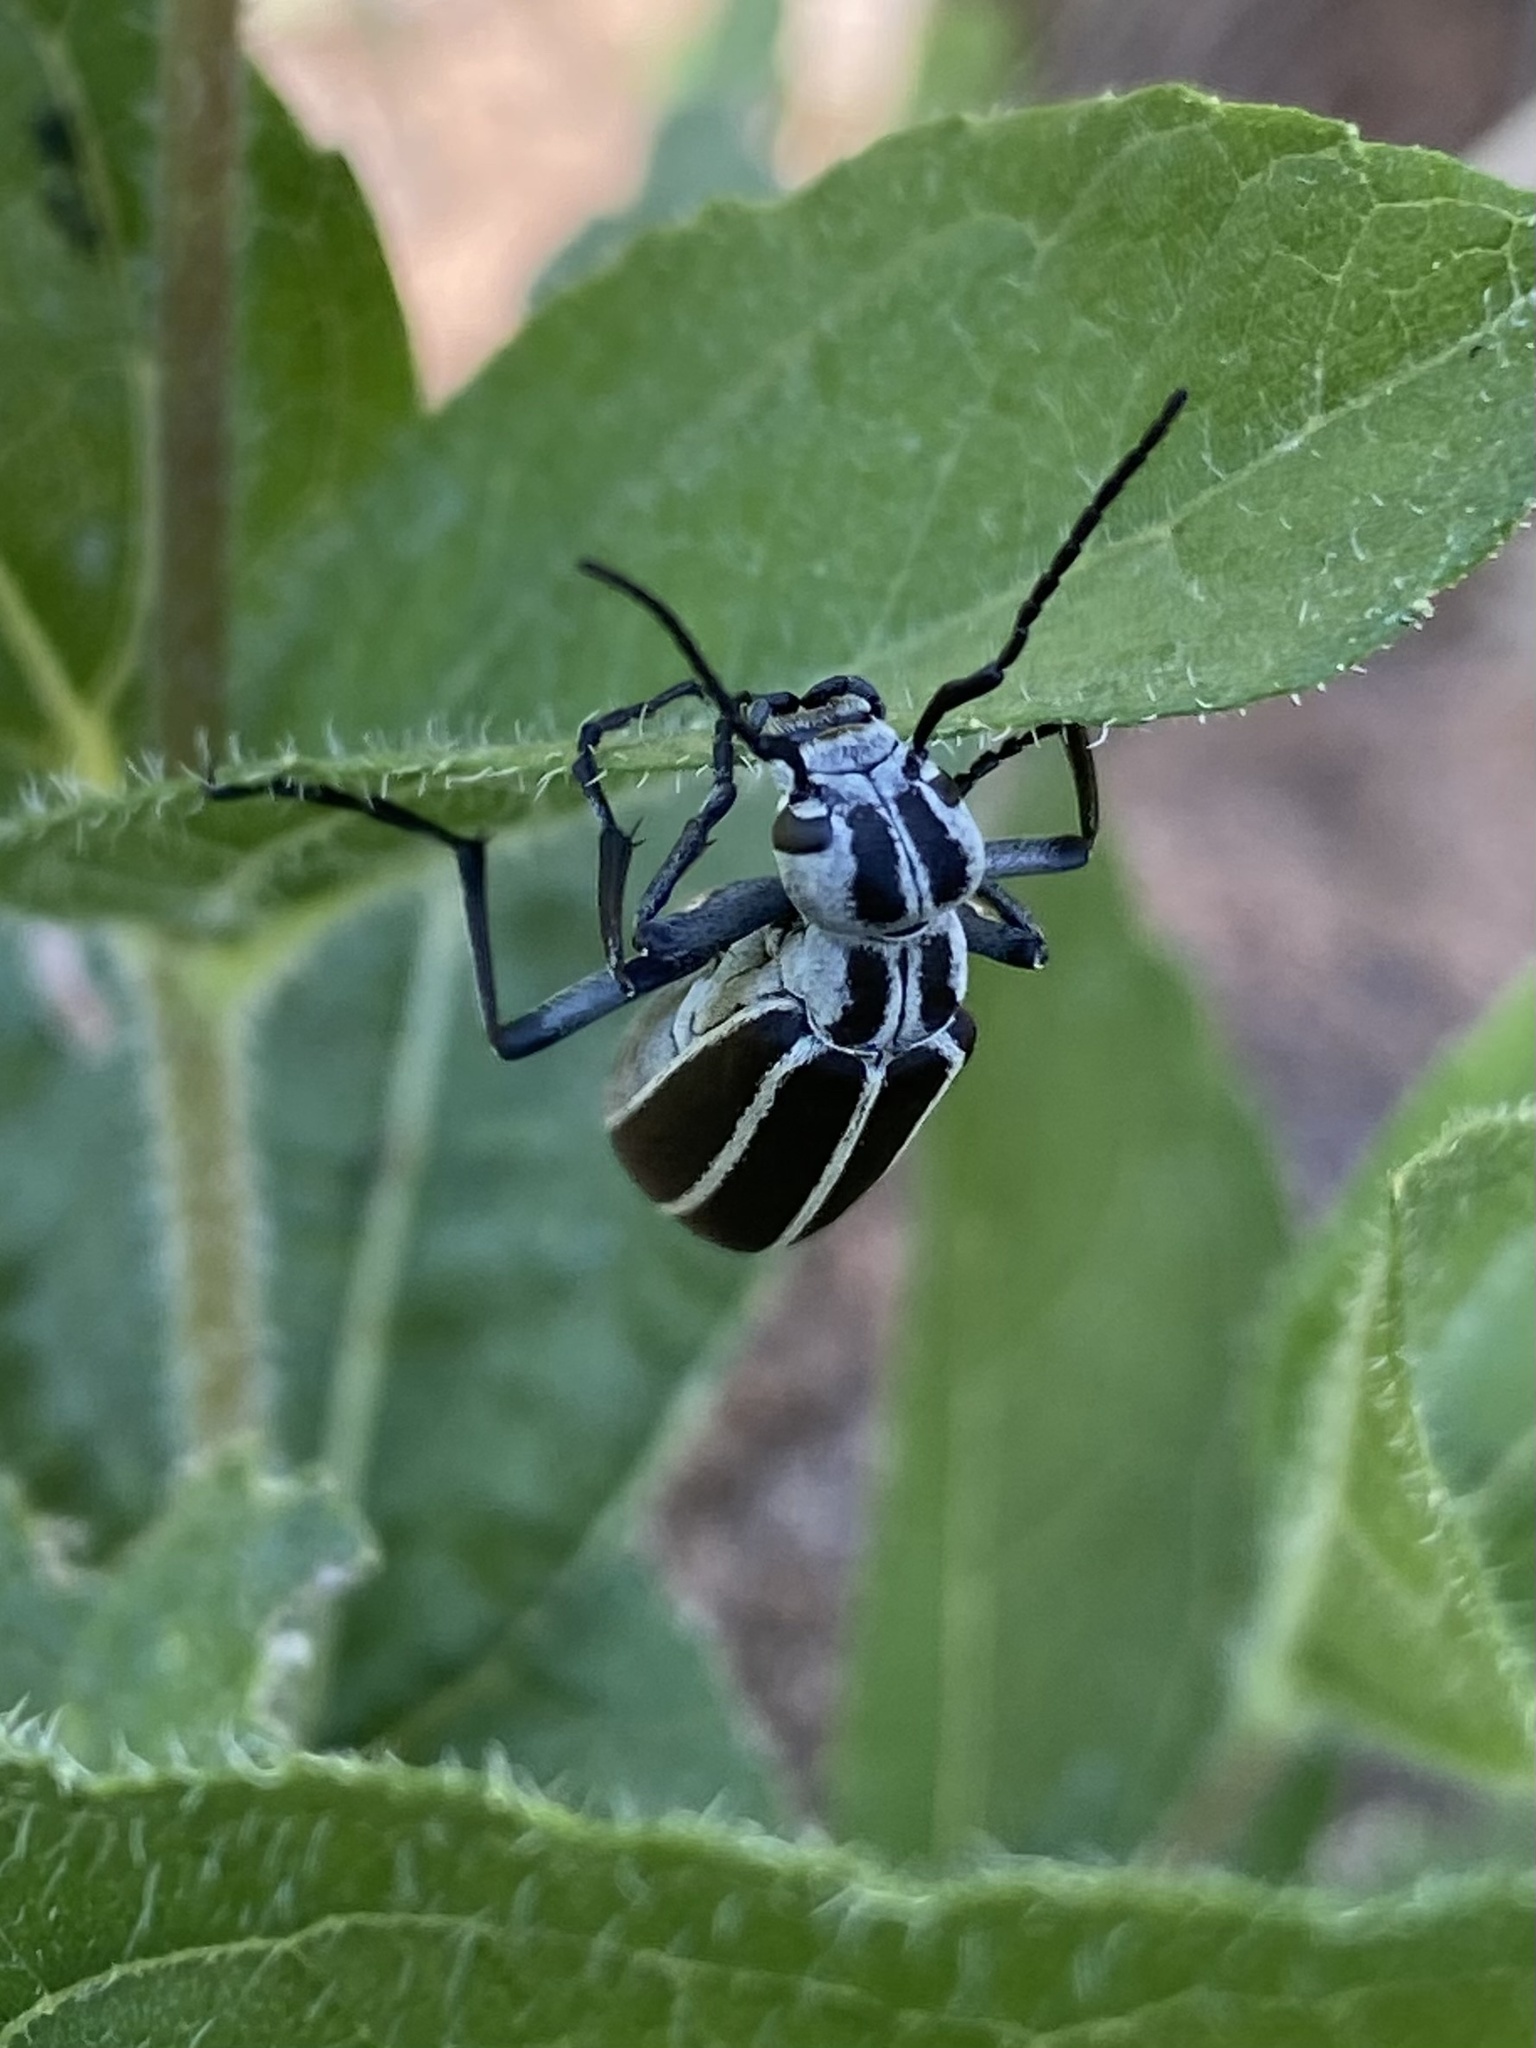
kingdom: Animalia
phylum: Arthropoda
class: Insecta
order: Coleoptera
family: Meloidae
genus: Epicauta
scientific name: Epicauta purpurea
